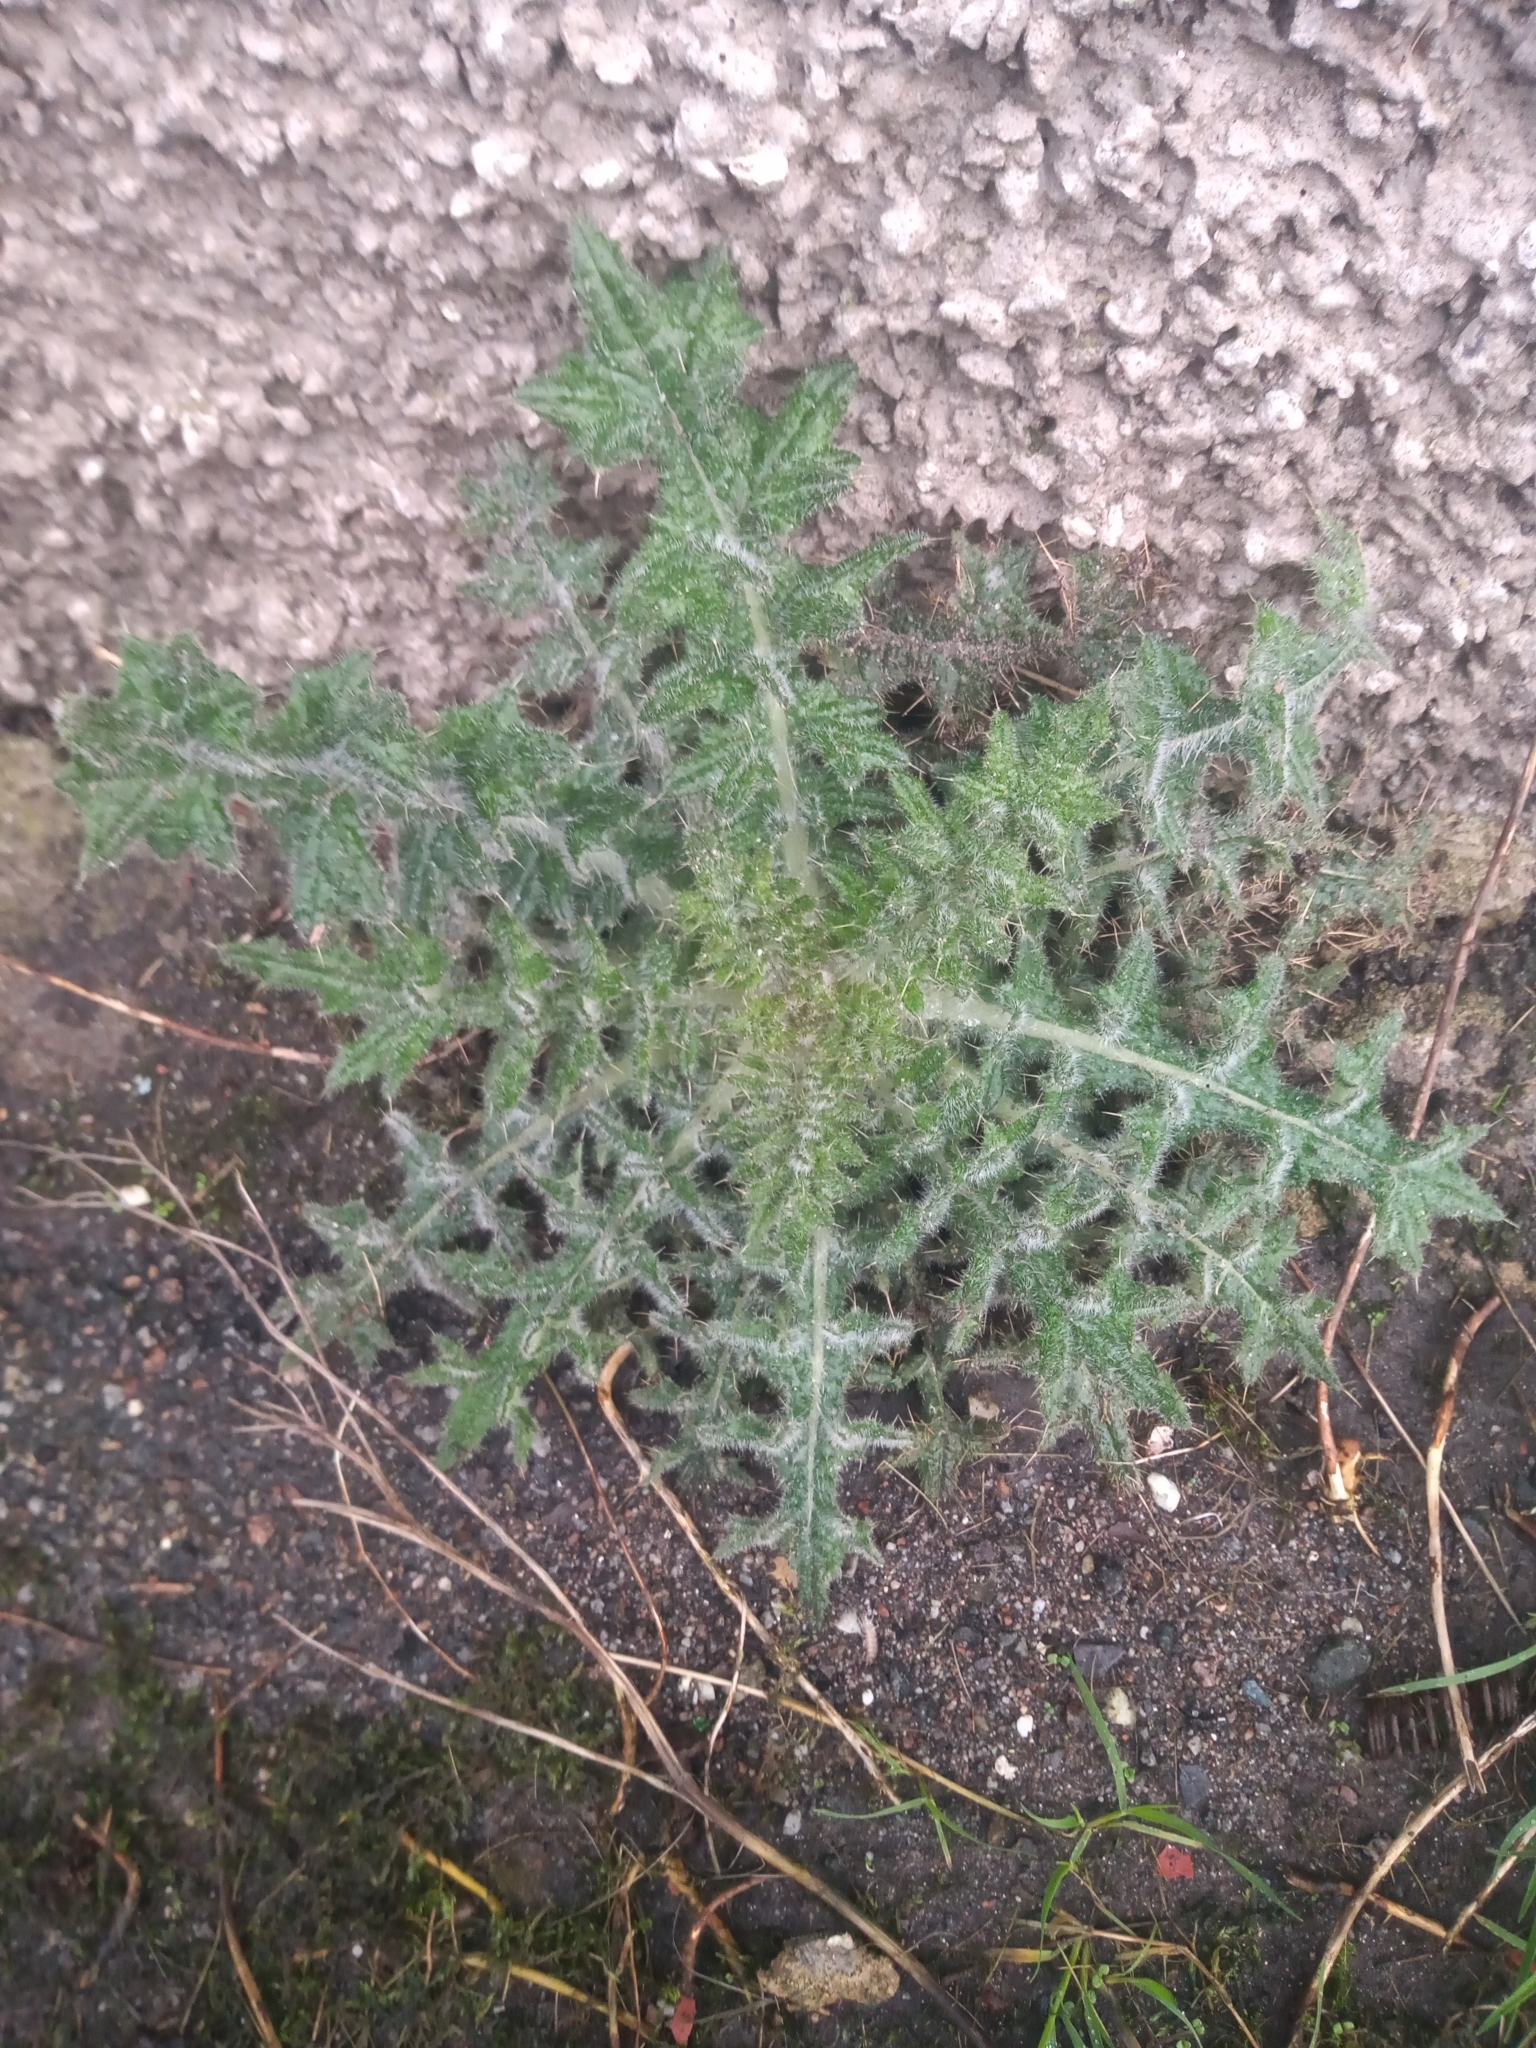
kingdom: Plantae
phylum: Tracheophyta
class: Magnoliopsida
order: Asterales
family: Asteraceae
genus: Cirsium
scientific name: Cirsium vulgare
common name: Bull thistle
